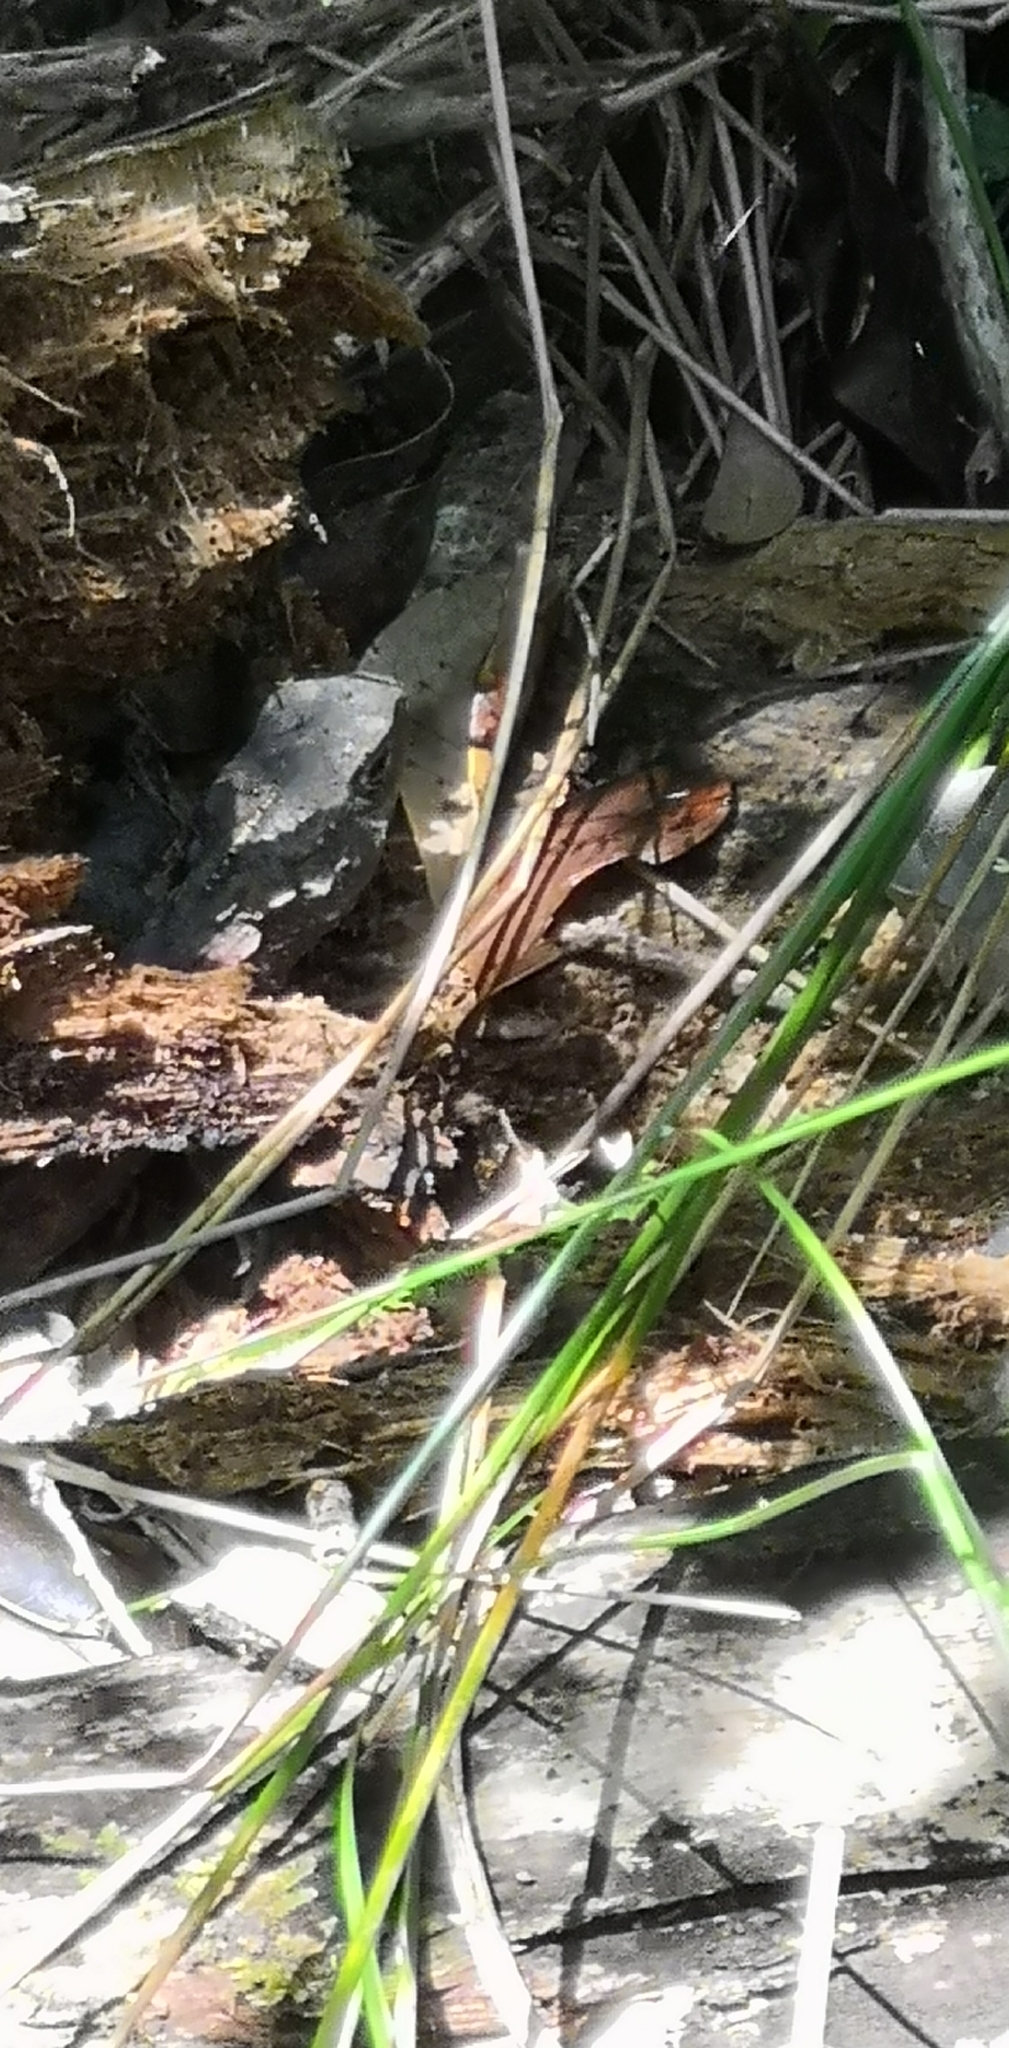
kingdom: Animalia
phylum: Chordata
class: Sphenodontia
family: Sphenodontidae
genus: Sphenodon
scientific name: Sphenodon punctatus
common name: Tuatara
